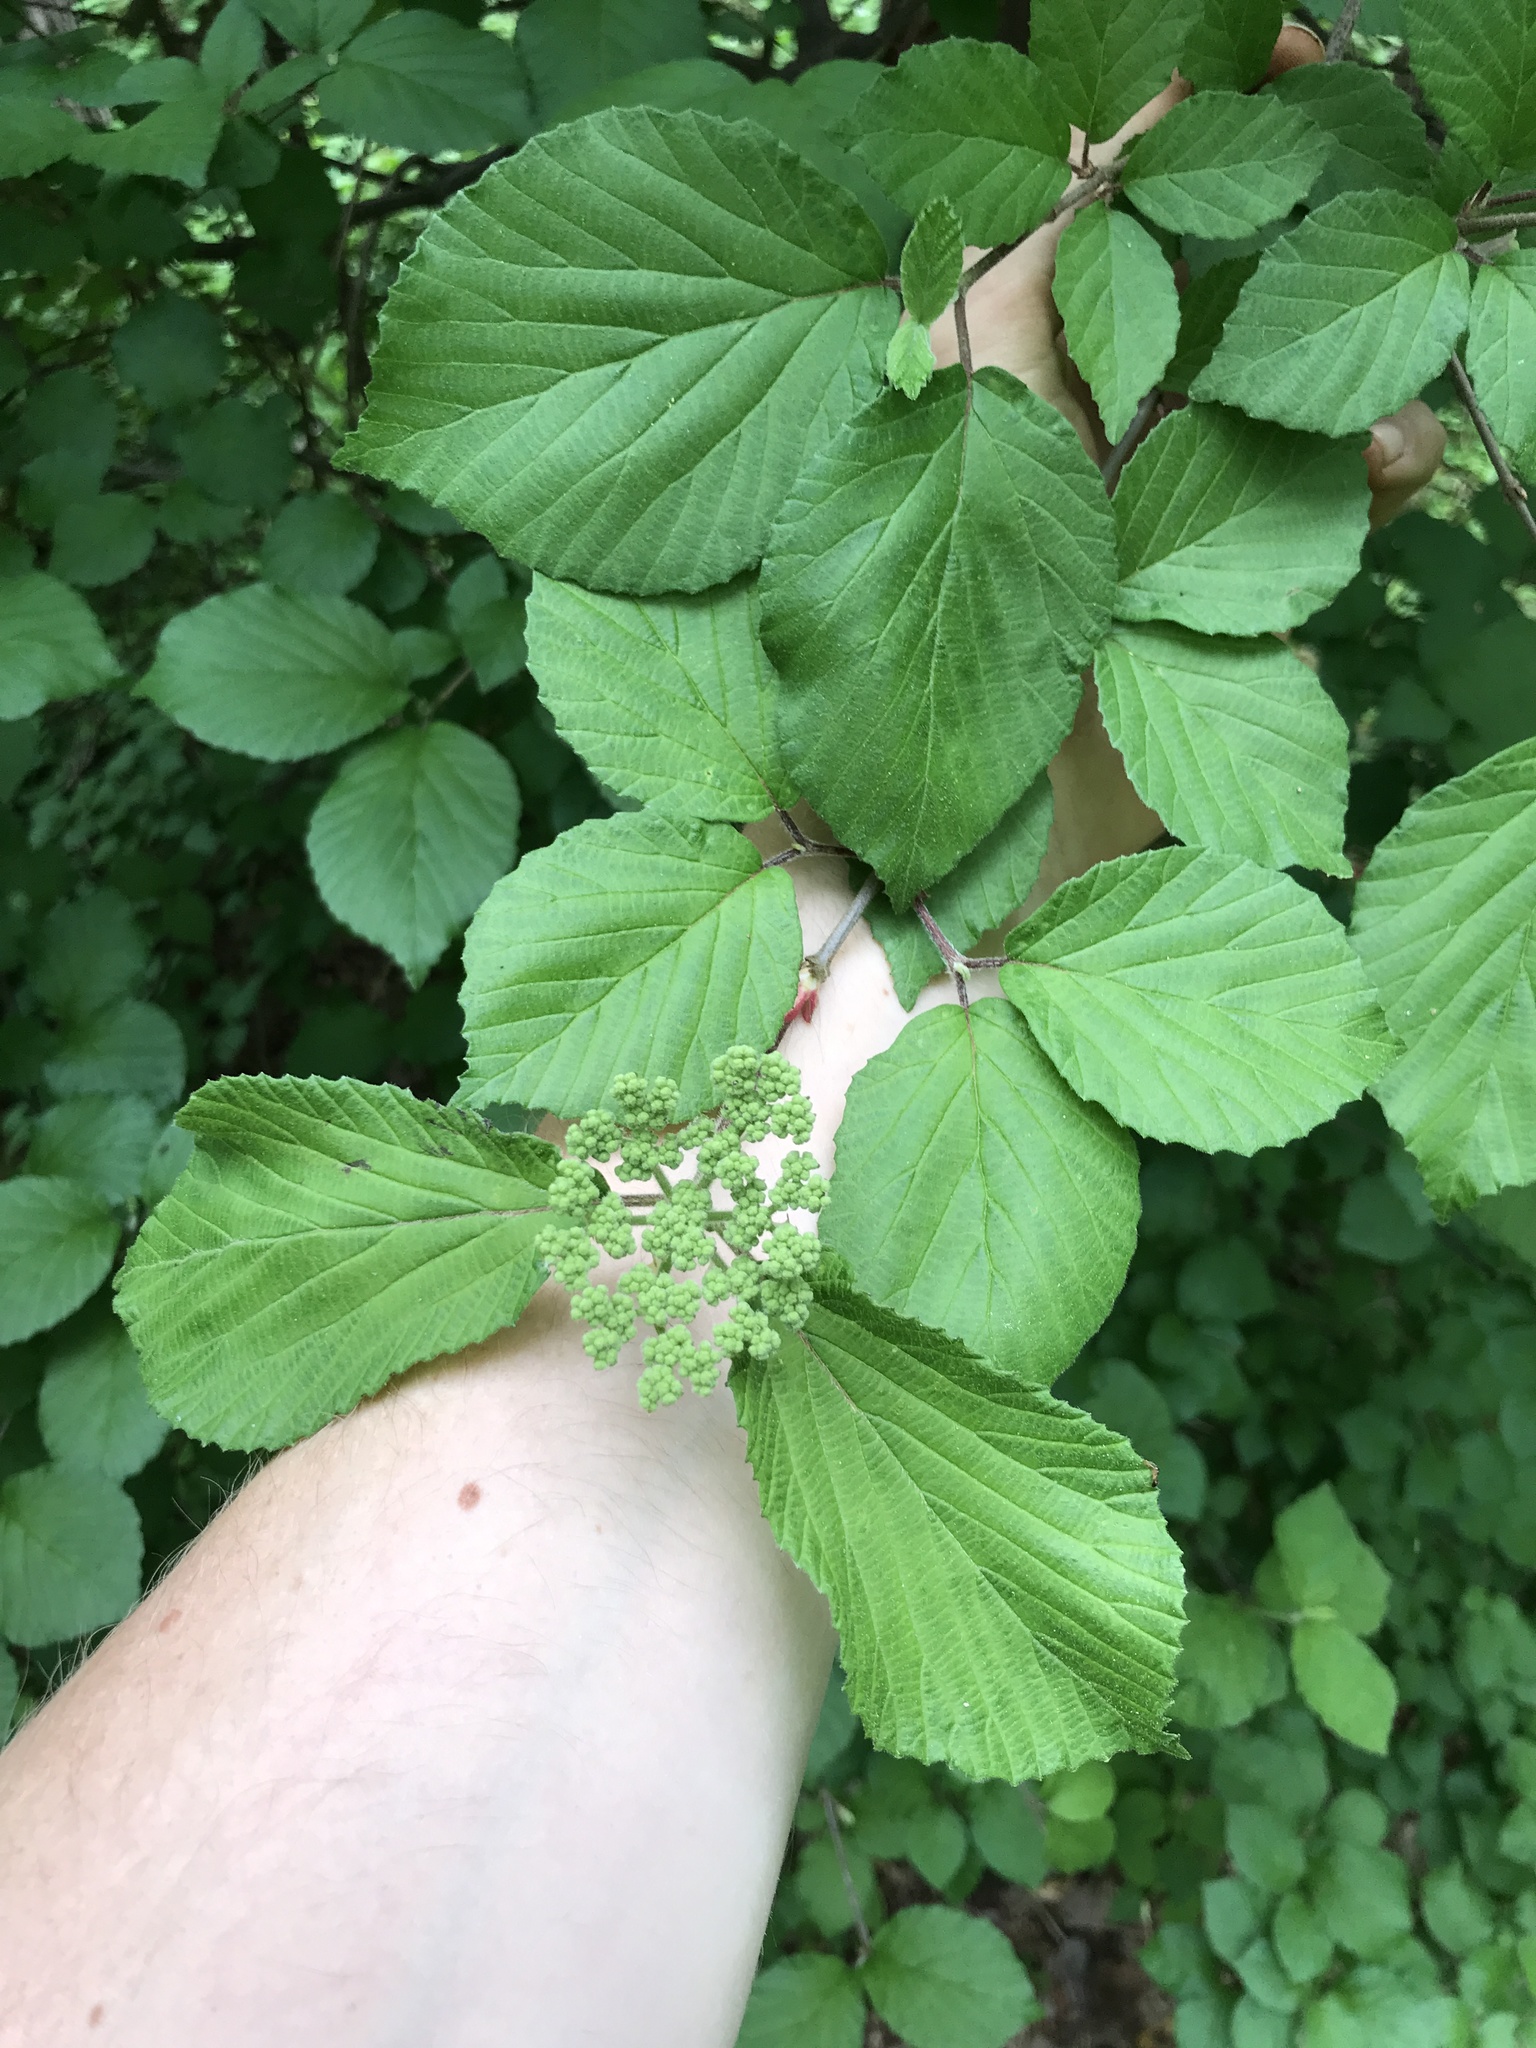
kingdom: Plantae
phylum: Tracheophyta
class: Magnoliopsida
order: Dipsacales
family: Viburnaceae
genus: Viburnum
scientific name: Viburnum dilatatum
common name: Linden arrowwood
